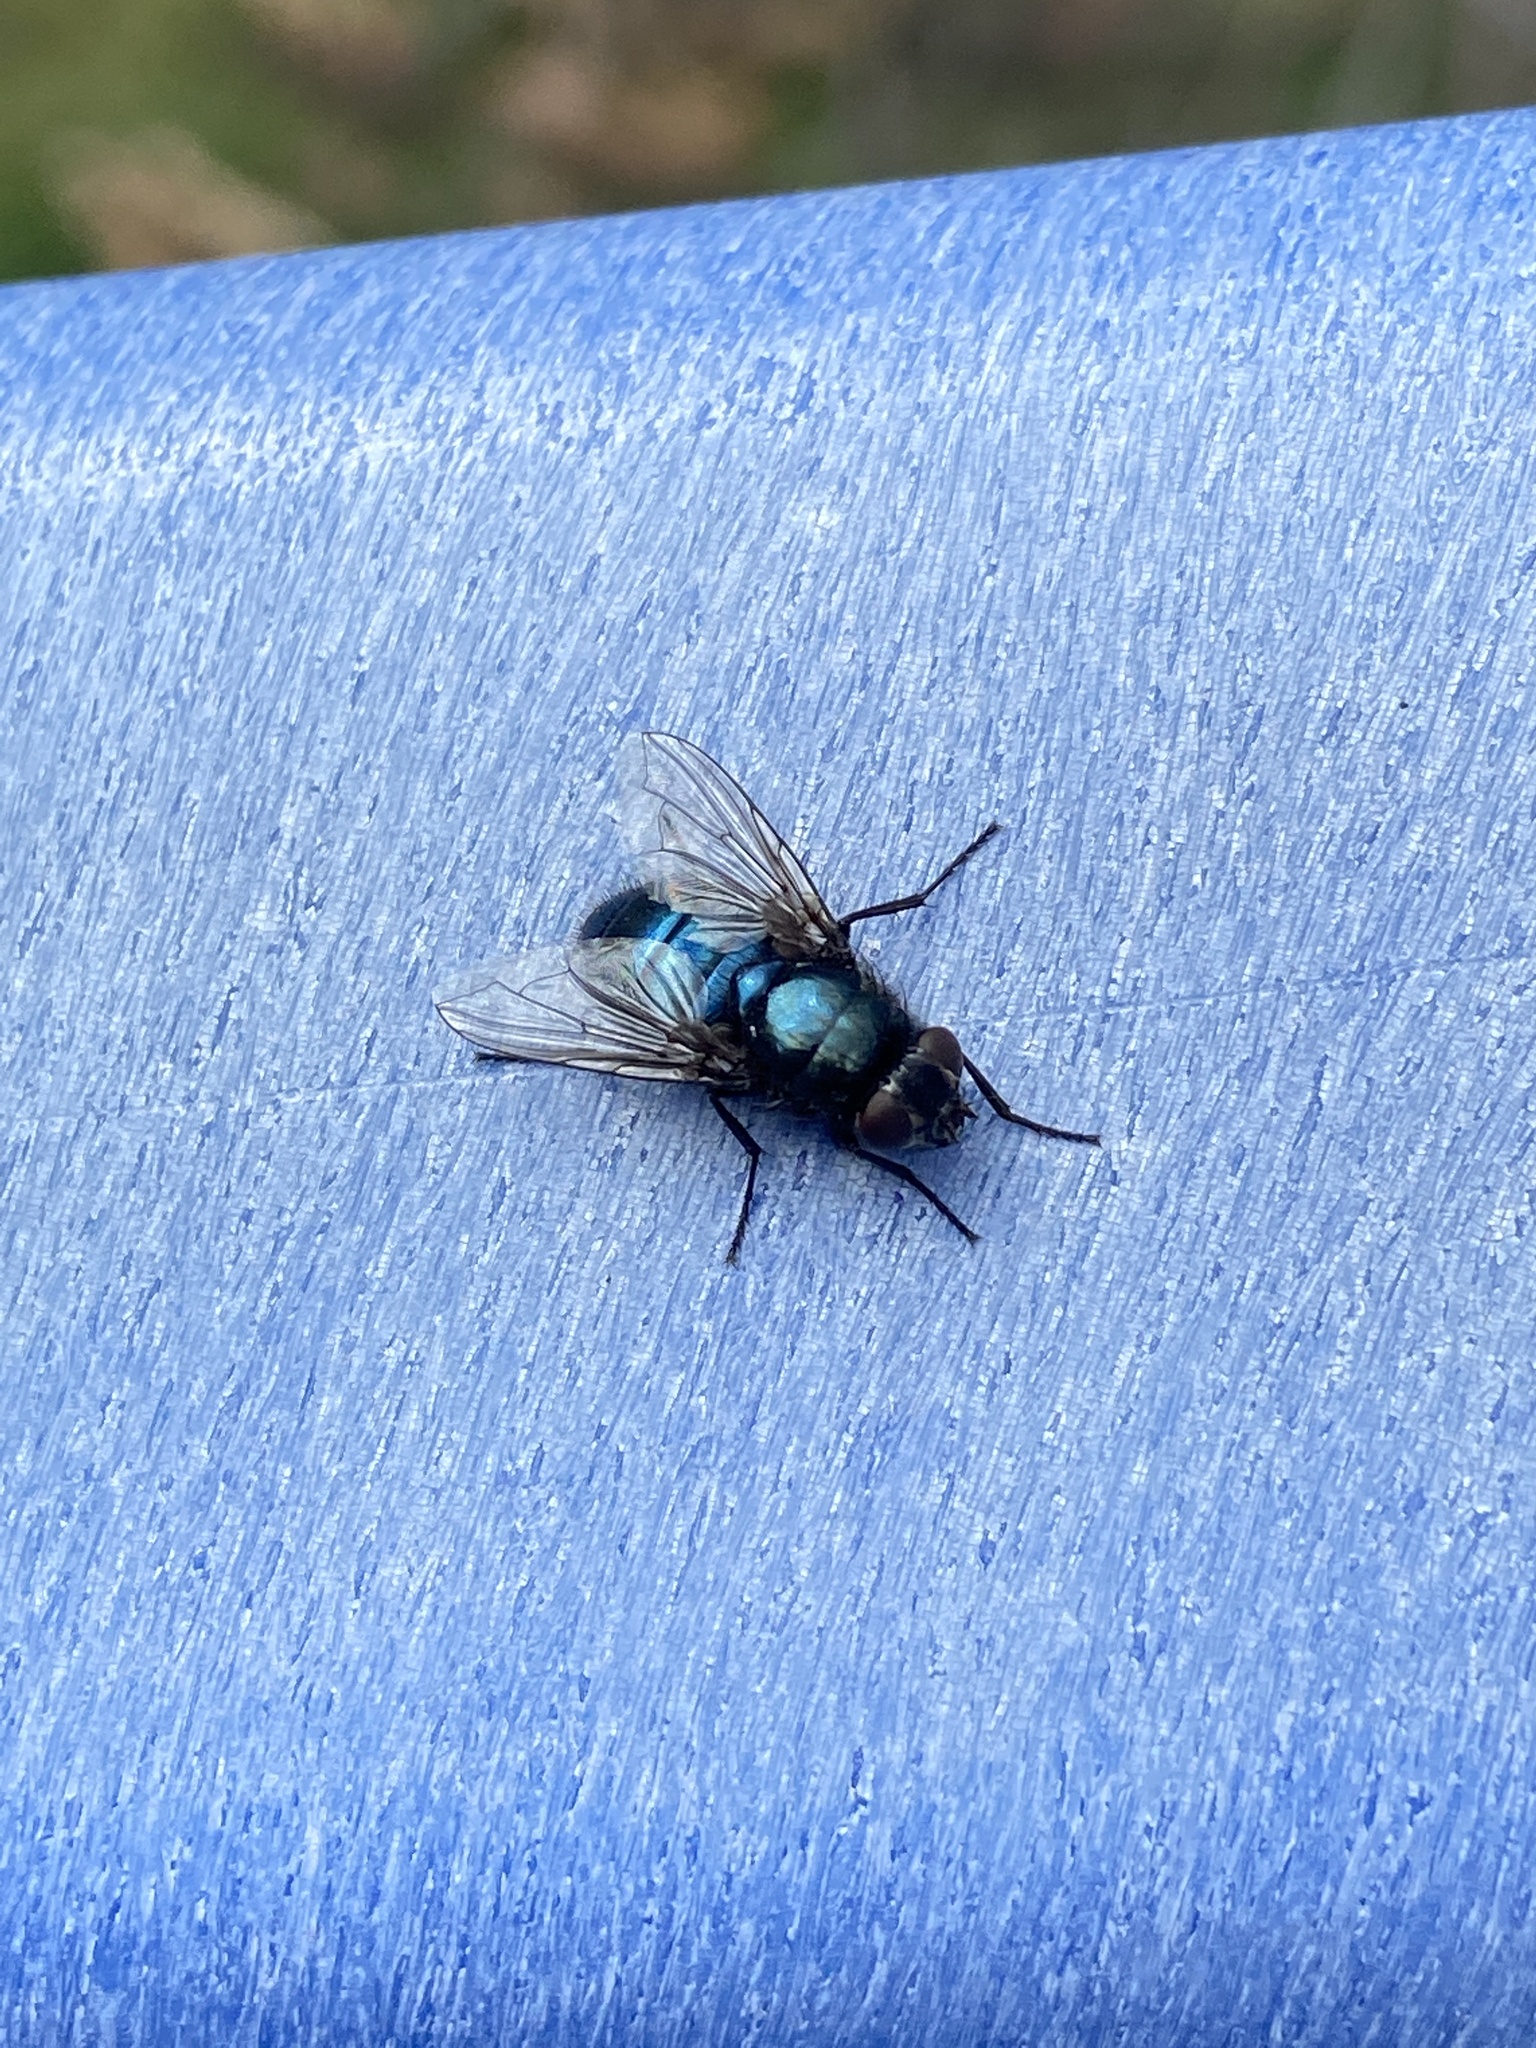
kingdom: Animalia
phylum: Arthropoda
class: Insecta
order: Diptera
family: Calliphoridae
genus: Protophormia
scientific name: Protophormia terraenovae
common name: Blackbottle
